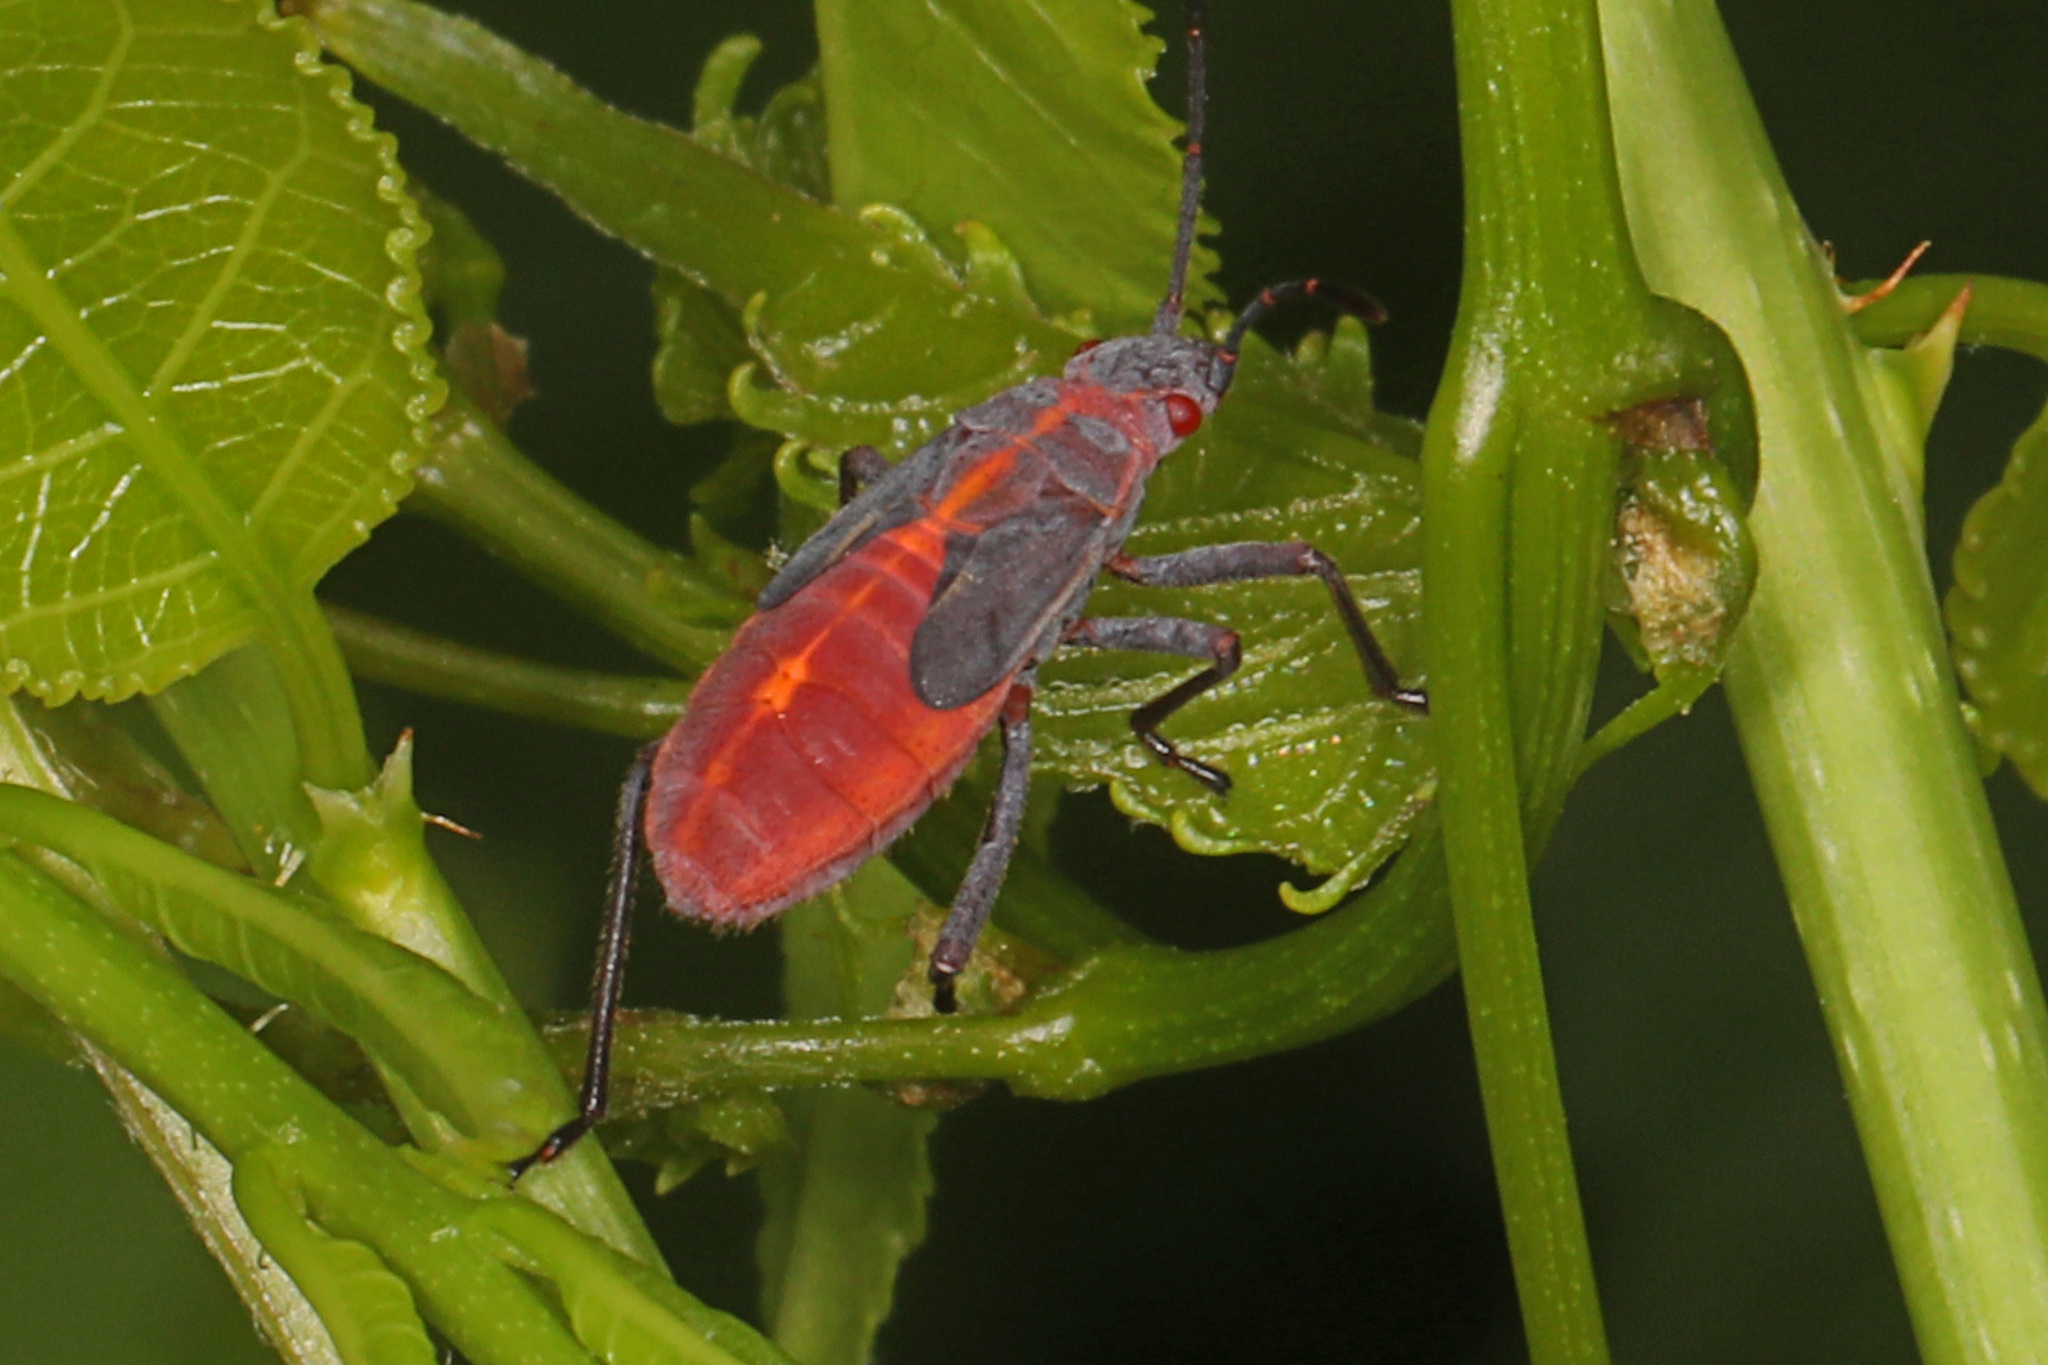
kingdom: Animalia
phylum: Arthropoda
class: Insecta
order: Hemiptera
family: Rhopalidae
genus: Boisea
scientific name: Boisea trivittata
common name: Boxelder bug
